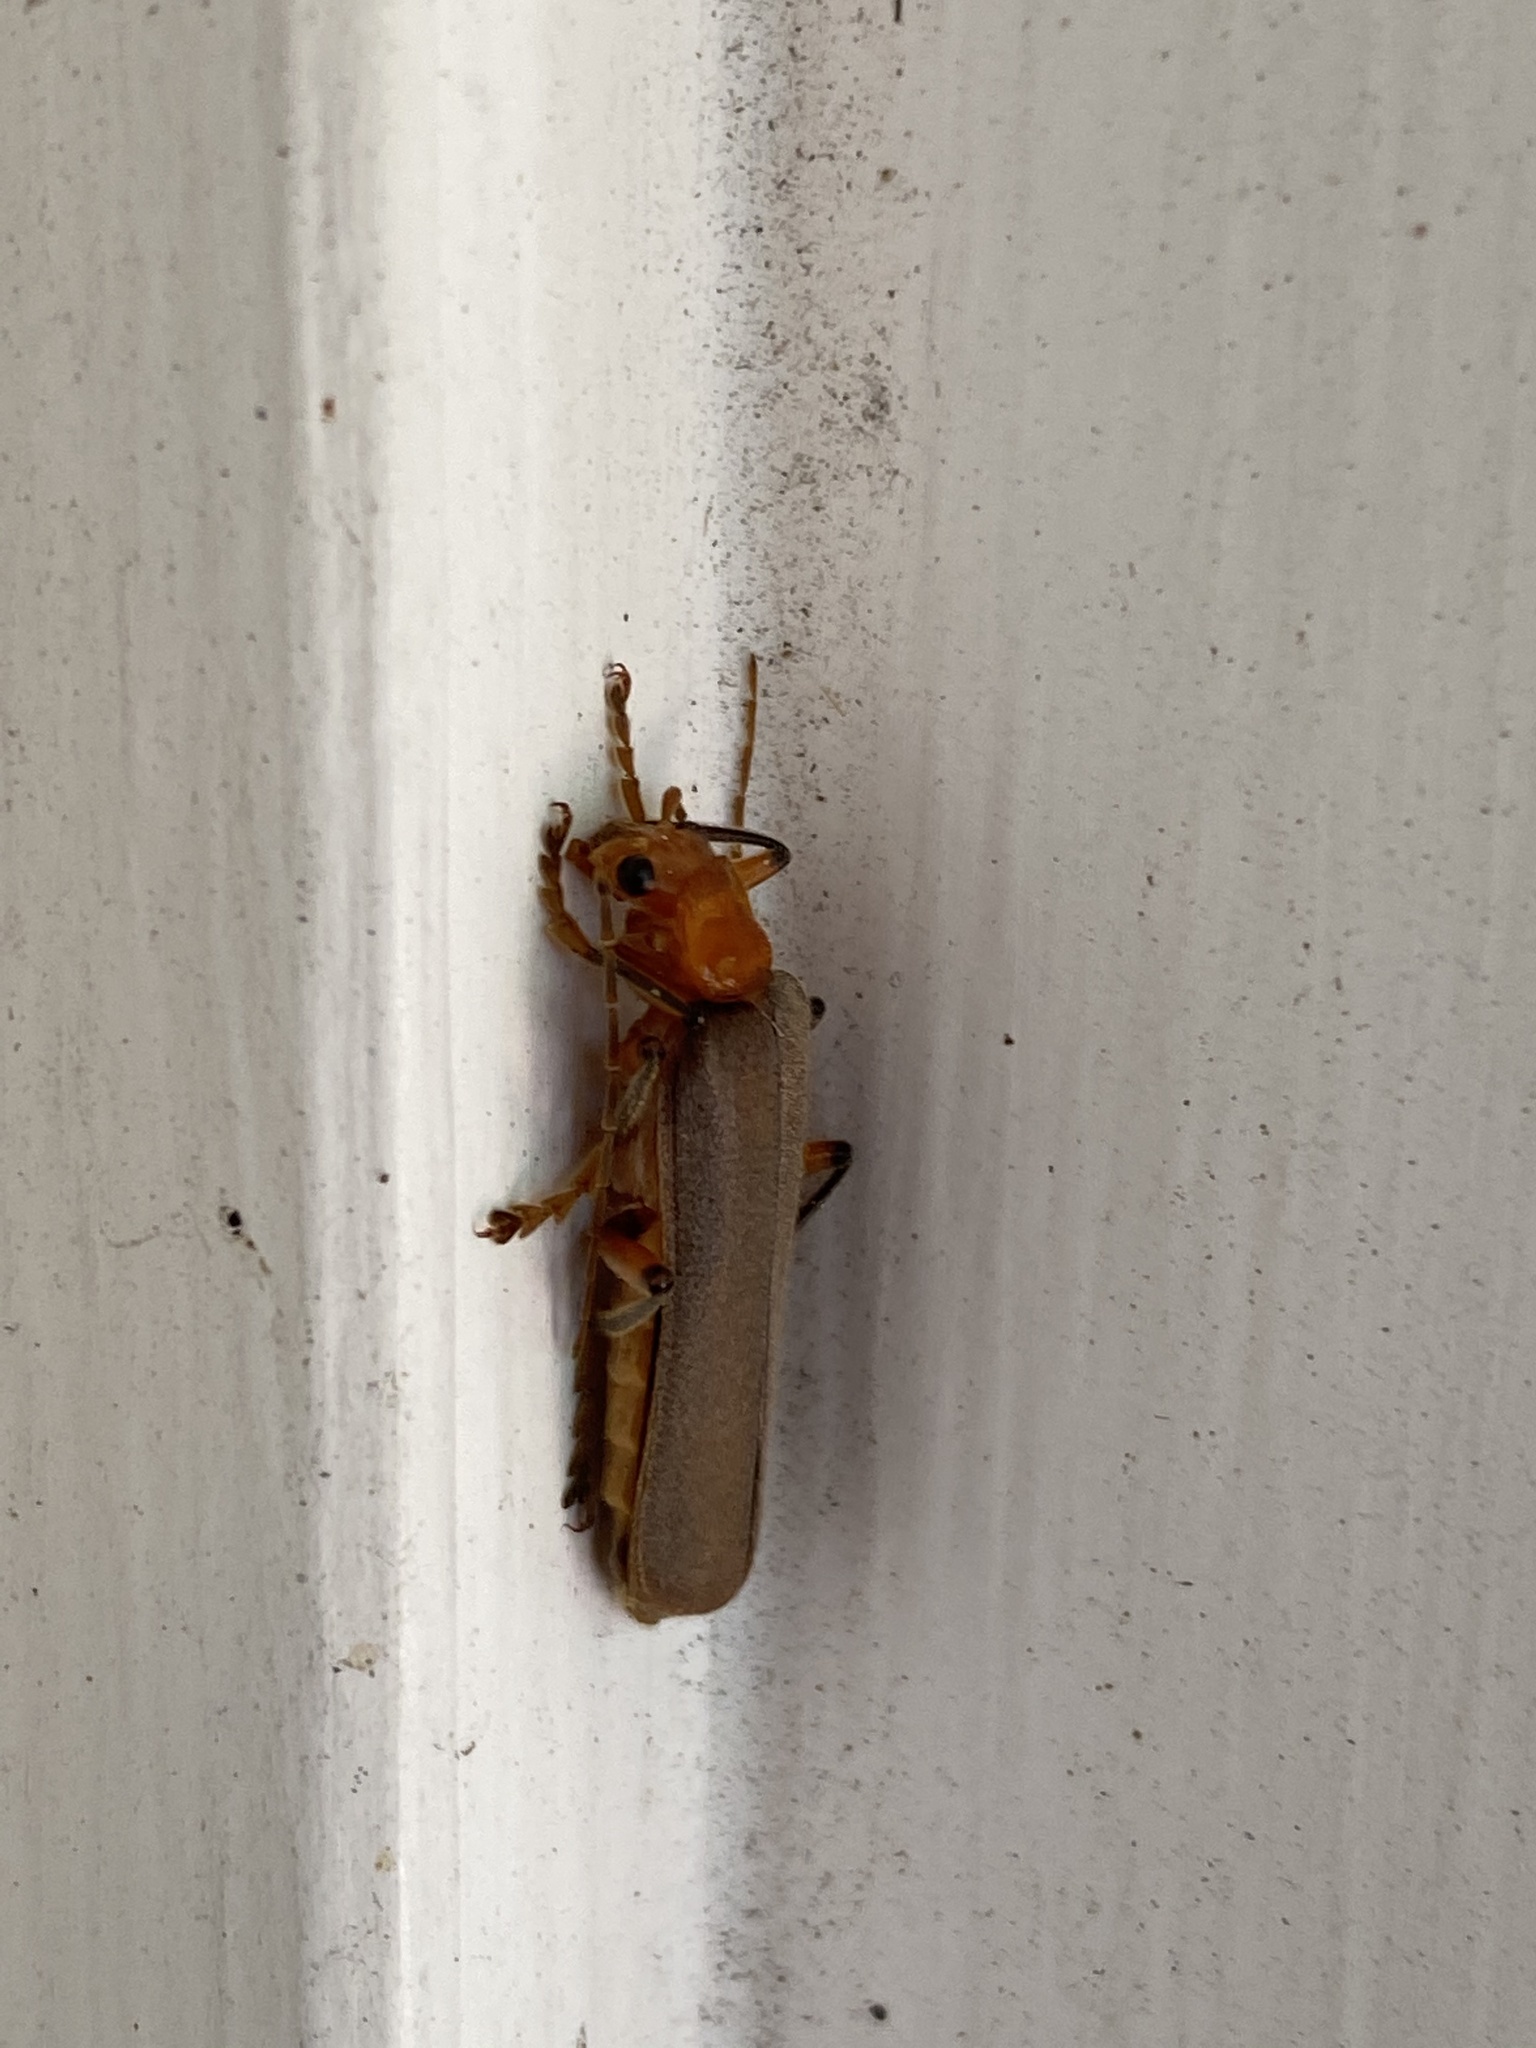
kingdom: Animalia
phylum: Arthropoda
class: Insecta
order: Coleoptera
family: Cantharidae
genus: Pacificanthia
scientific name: Pacificanthia consors
